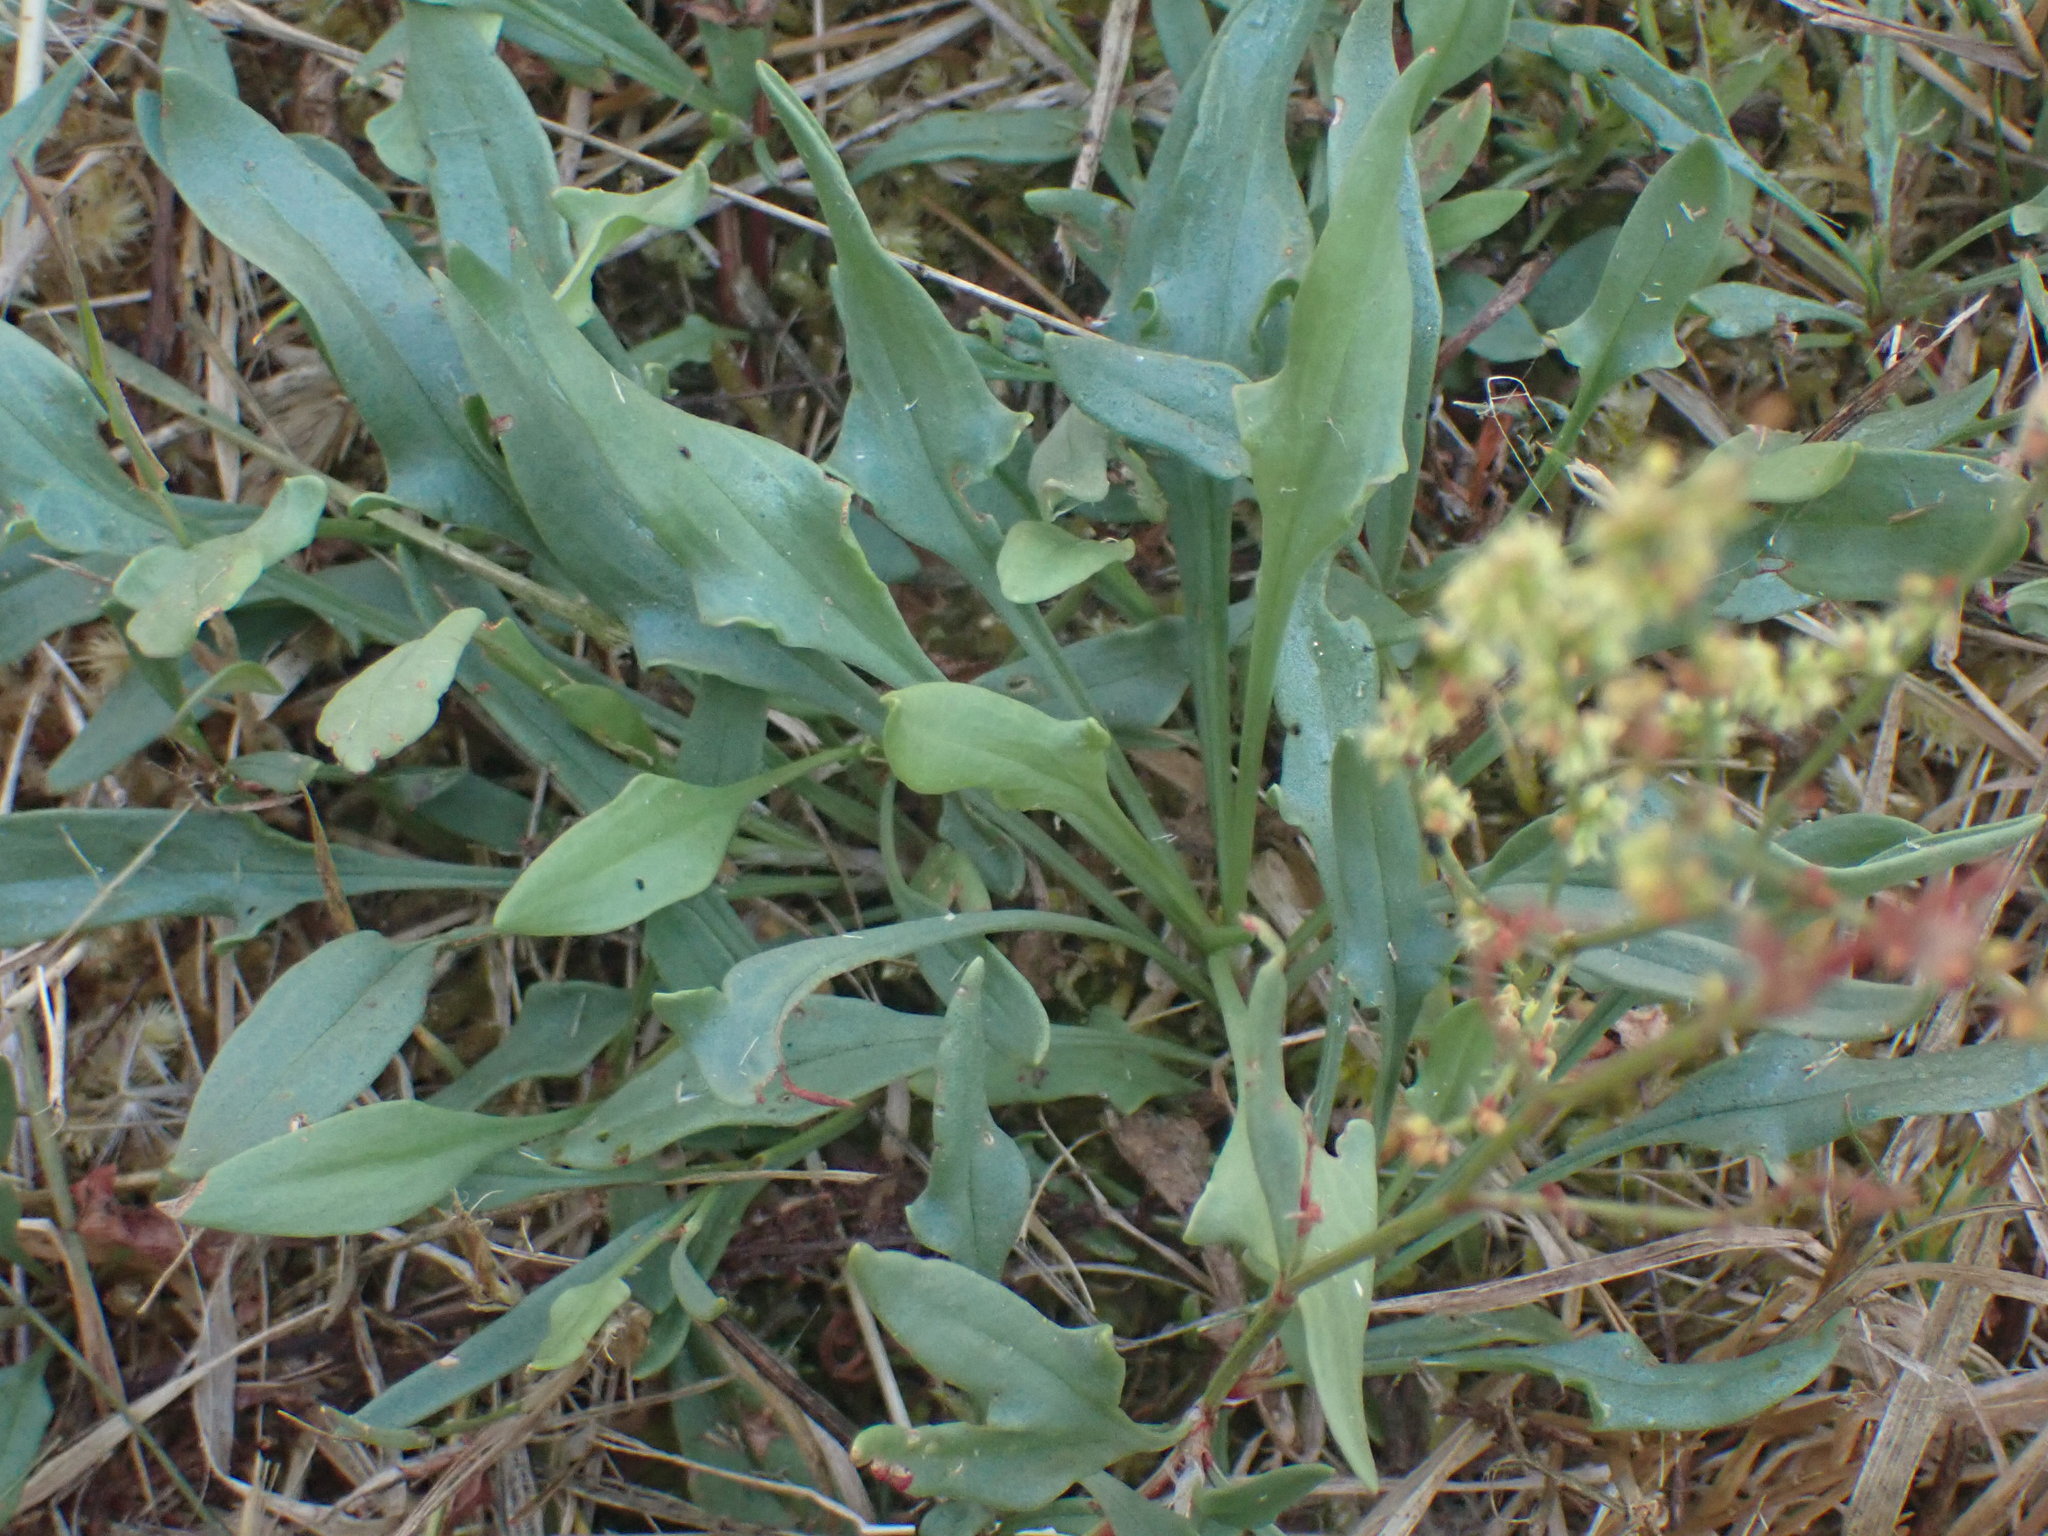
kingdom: Plantae
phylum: Tracheophyta
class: Magnoliopsida
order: Caryophyllales
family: Polygonaceae
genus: Rumex
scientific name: Rumex acetosella
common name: Common sheep sorrel
